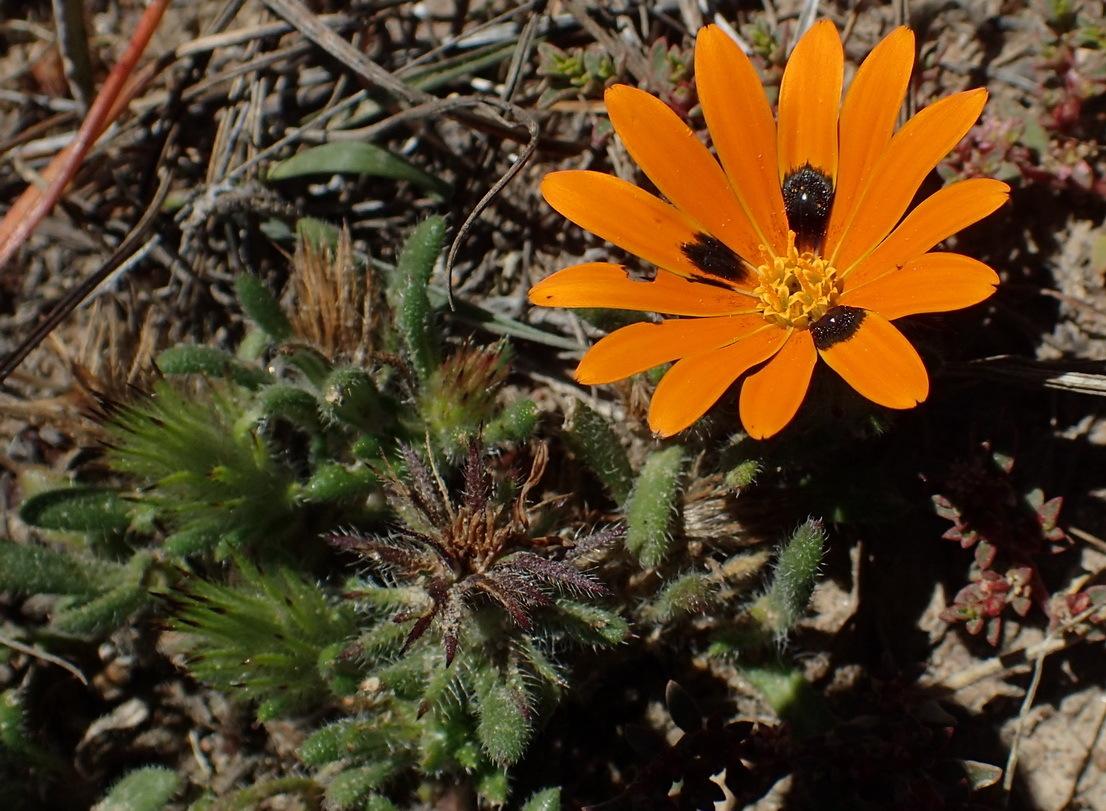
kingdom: Plantae
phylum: Tracheophyta
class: Magnoliopsida
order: Asterales
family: Asteraceae
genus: Gorteria
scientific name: Gorteria diffusa
